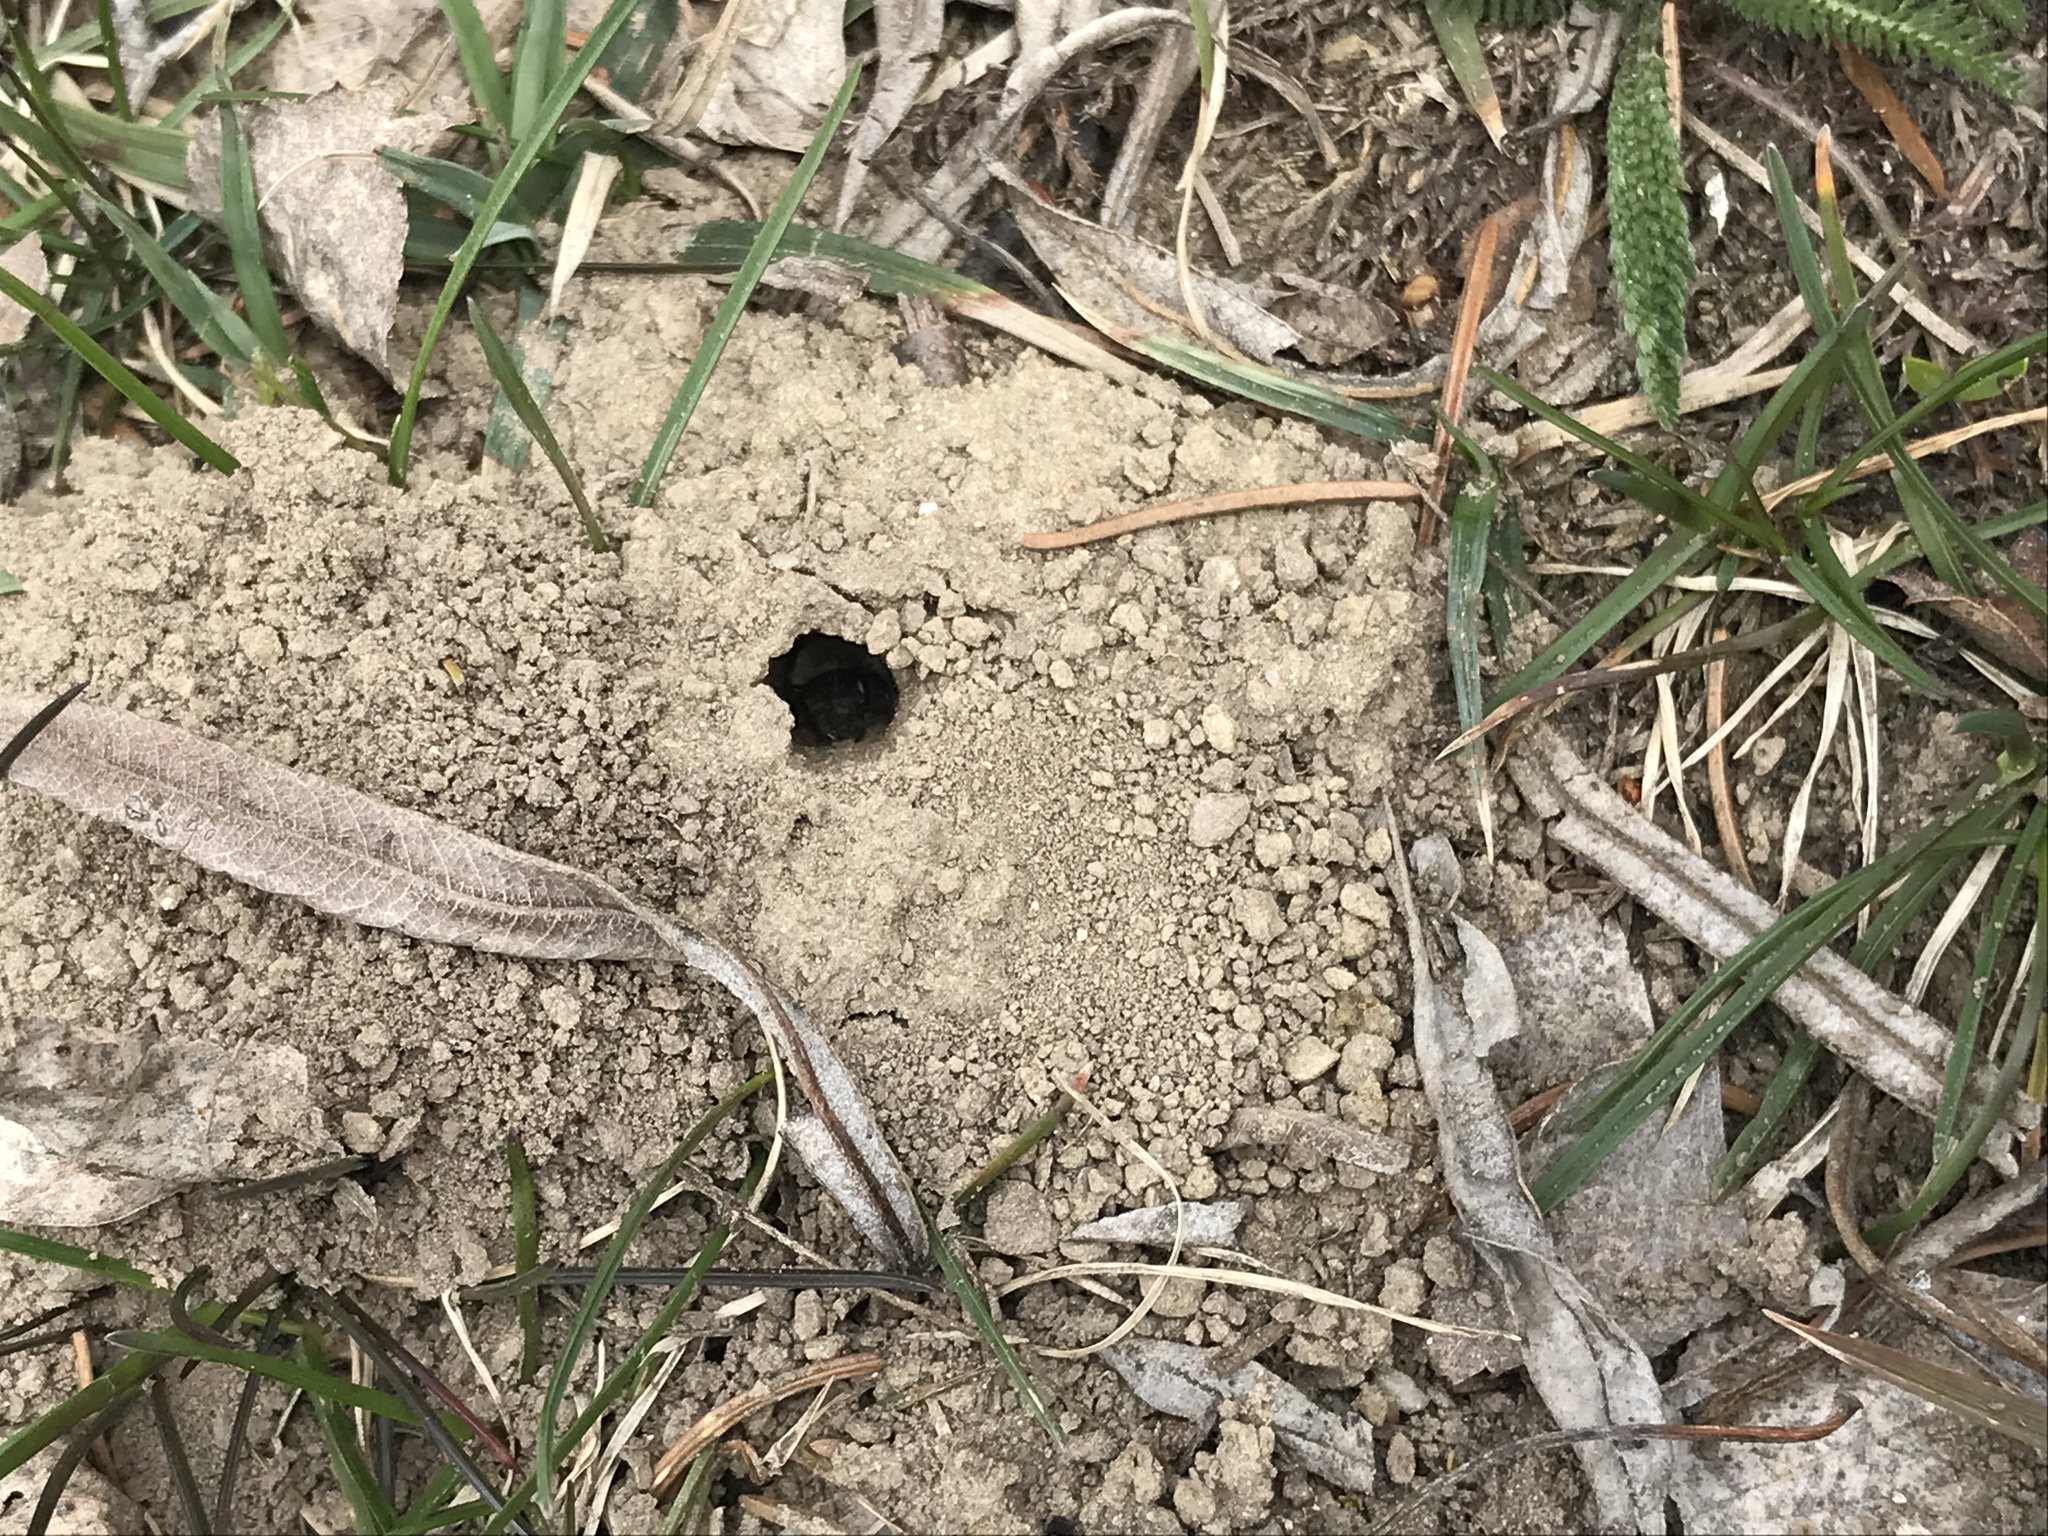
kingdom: Animalia
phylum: Arthropoda
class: Insecta
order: Hymenoptera
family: Andrenidae
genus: Andrena
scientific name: Andrena vaga
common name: Grey-backed mining bee
